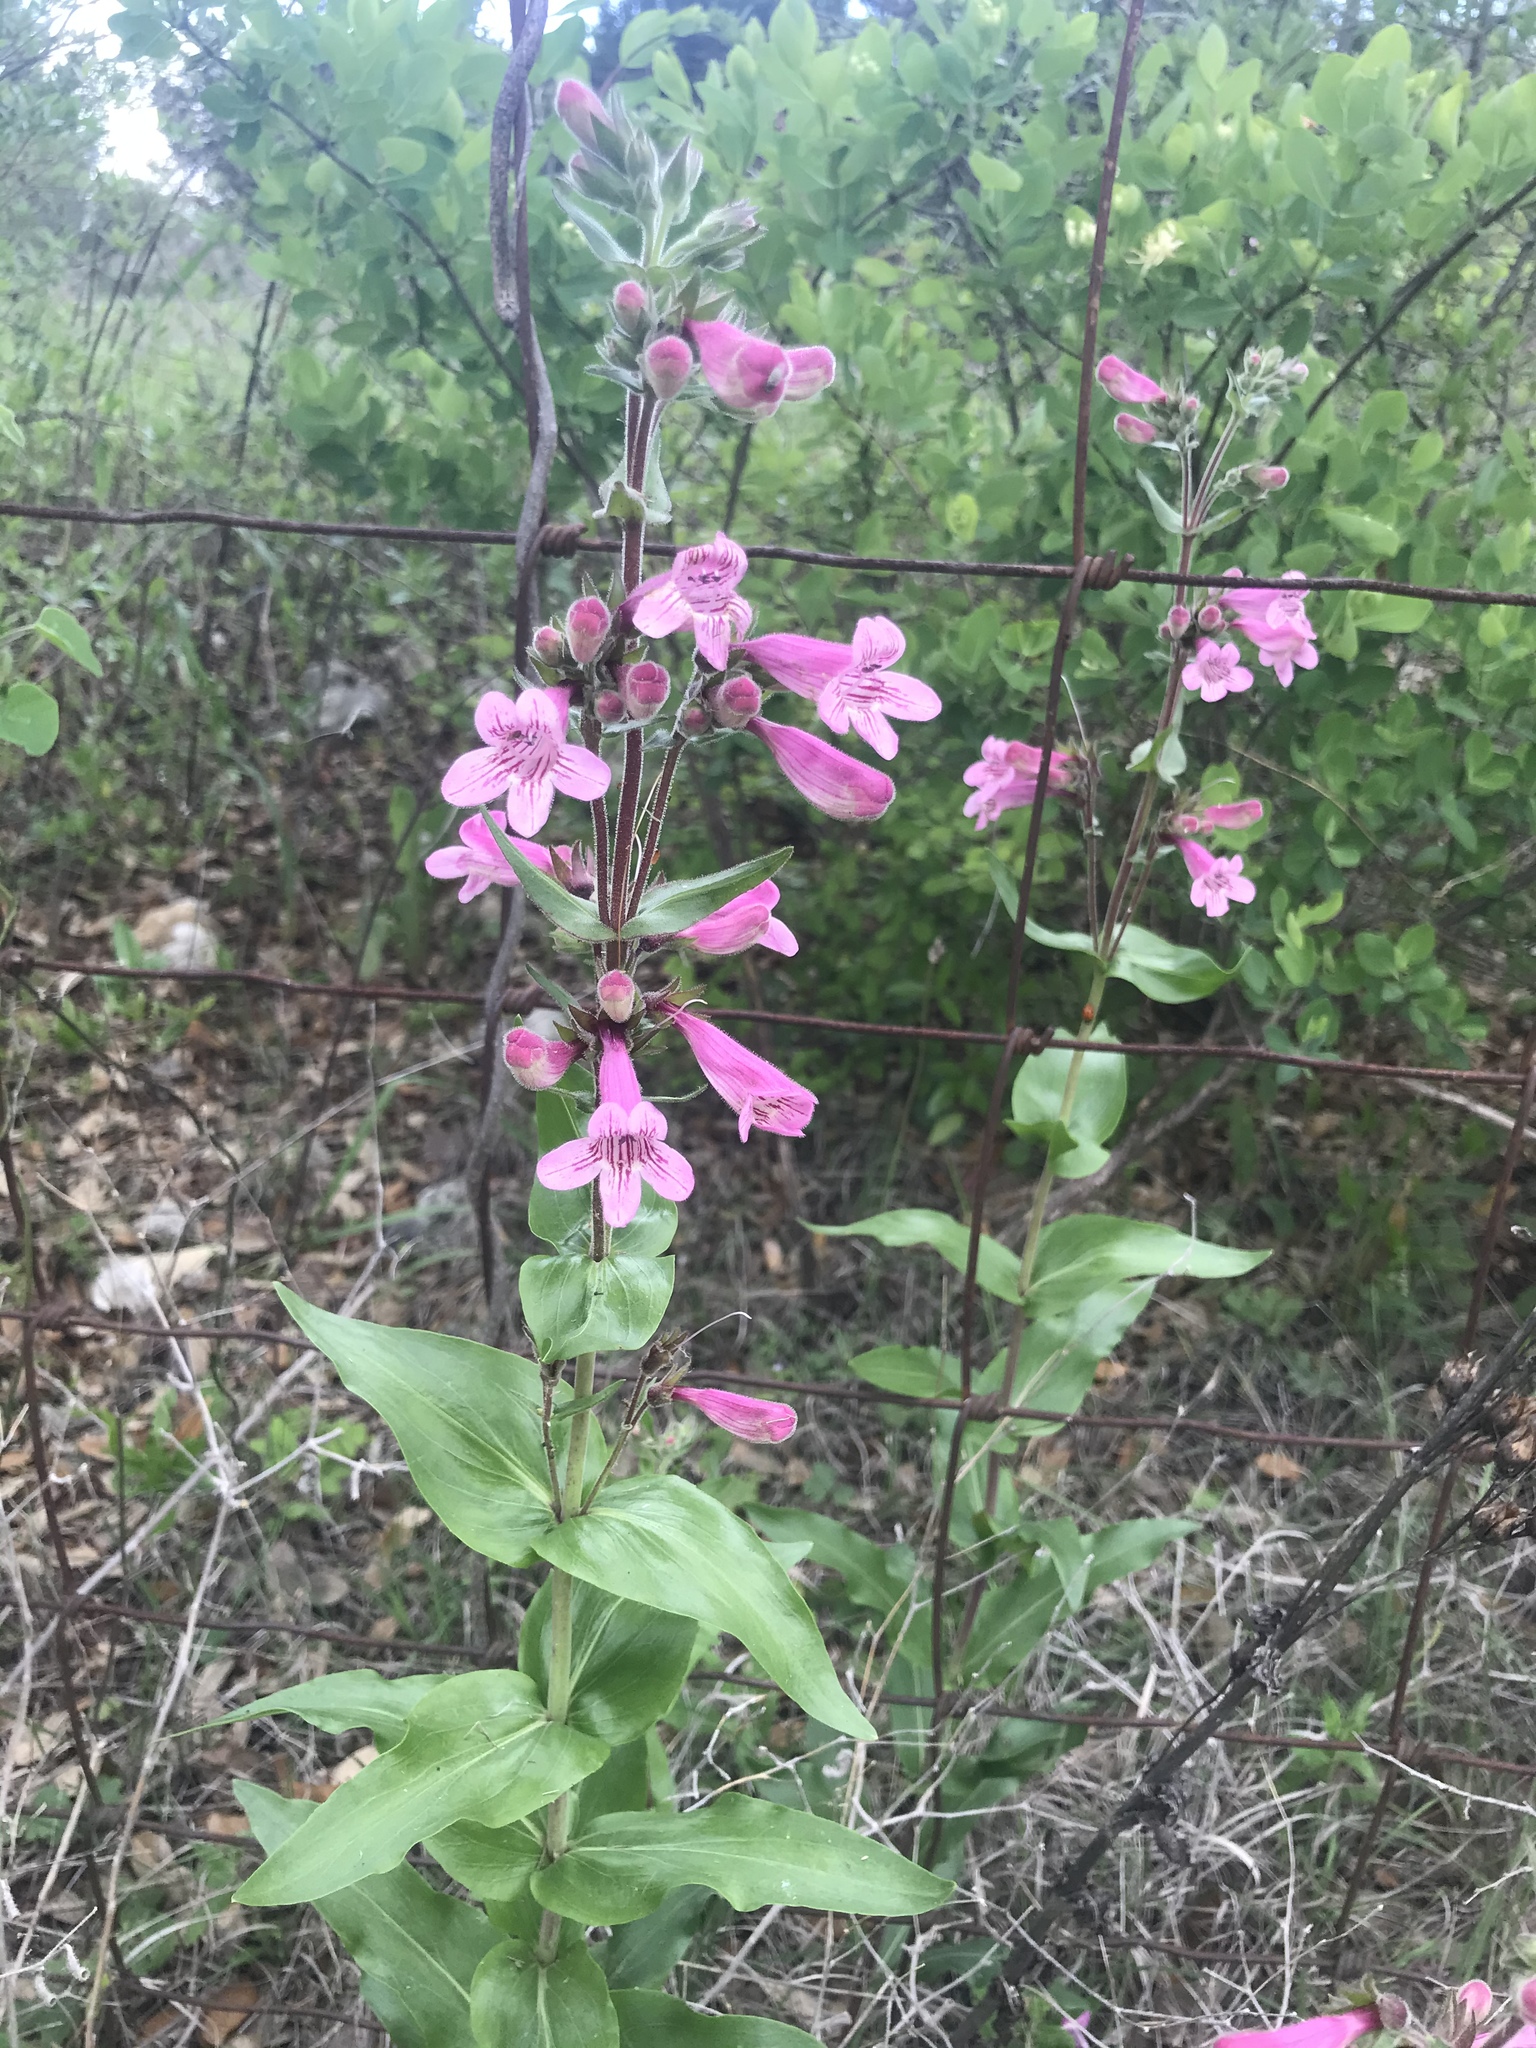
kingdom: Plantae
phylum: Tracheophyta
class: Magnoliopsida
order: Lamiales
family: Plantaginaceae
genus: Penstemon
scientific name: Penstemon triflorus
